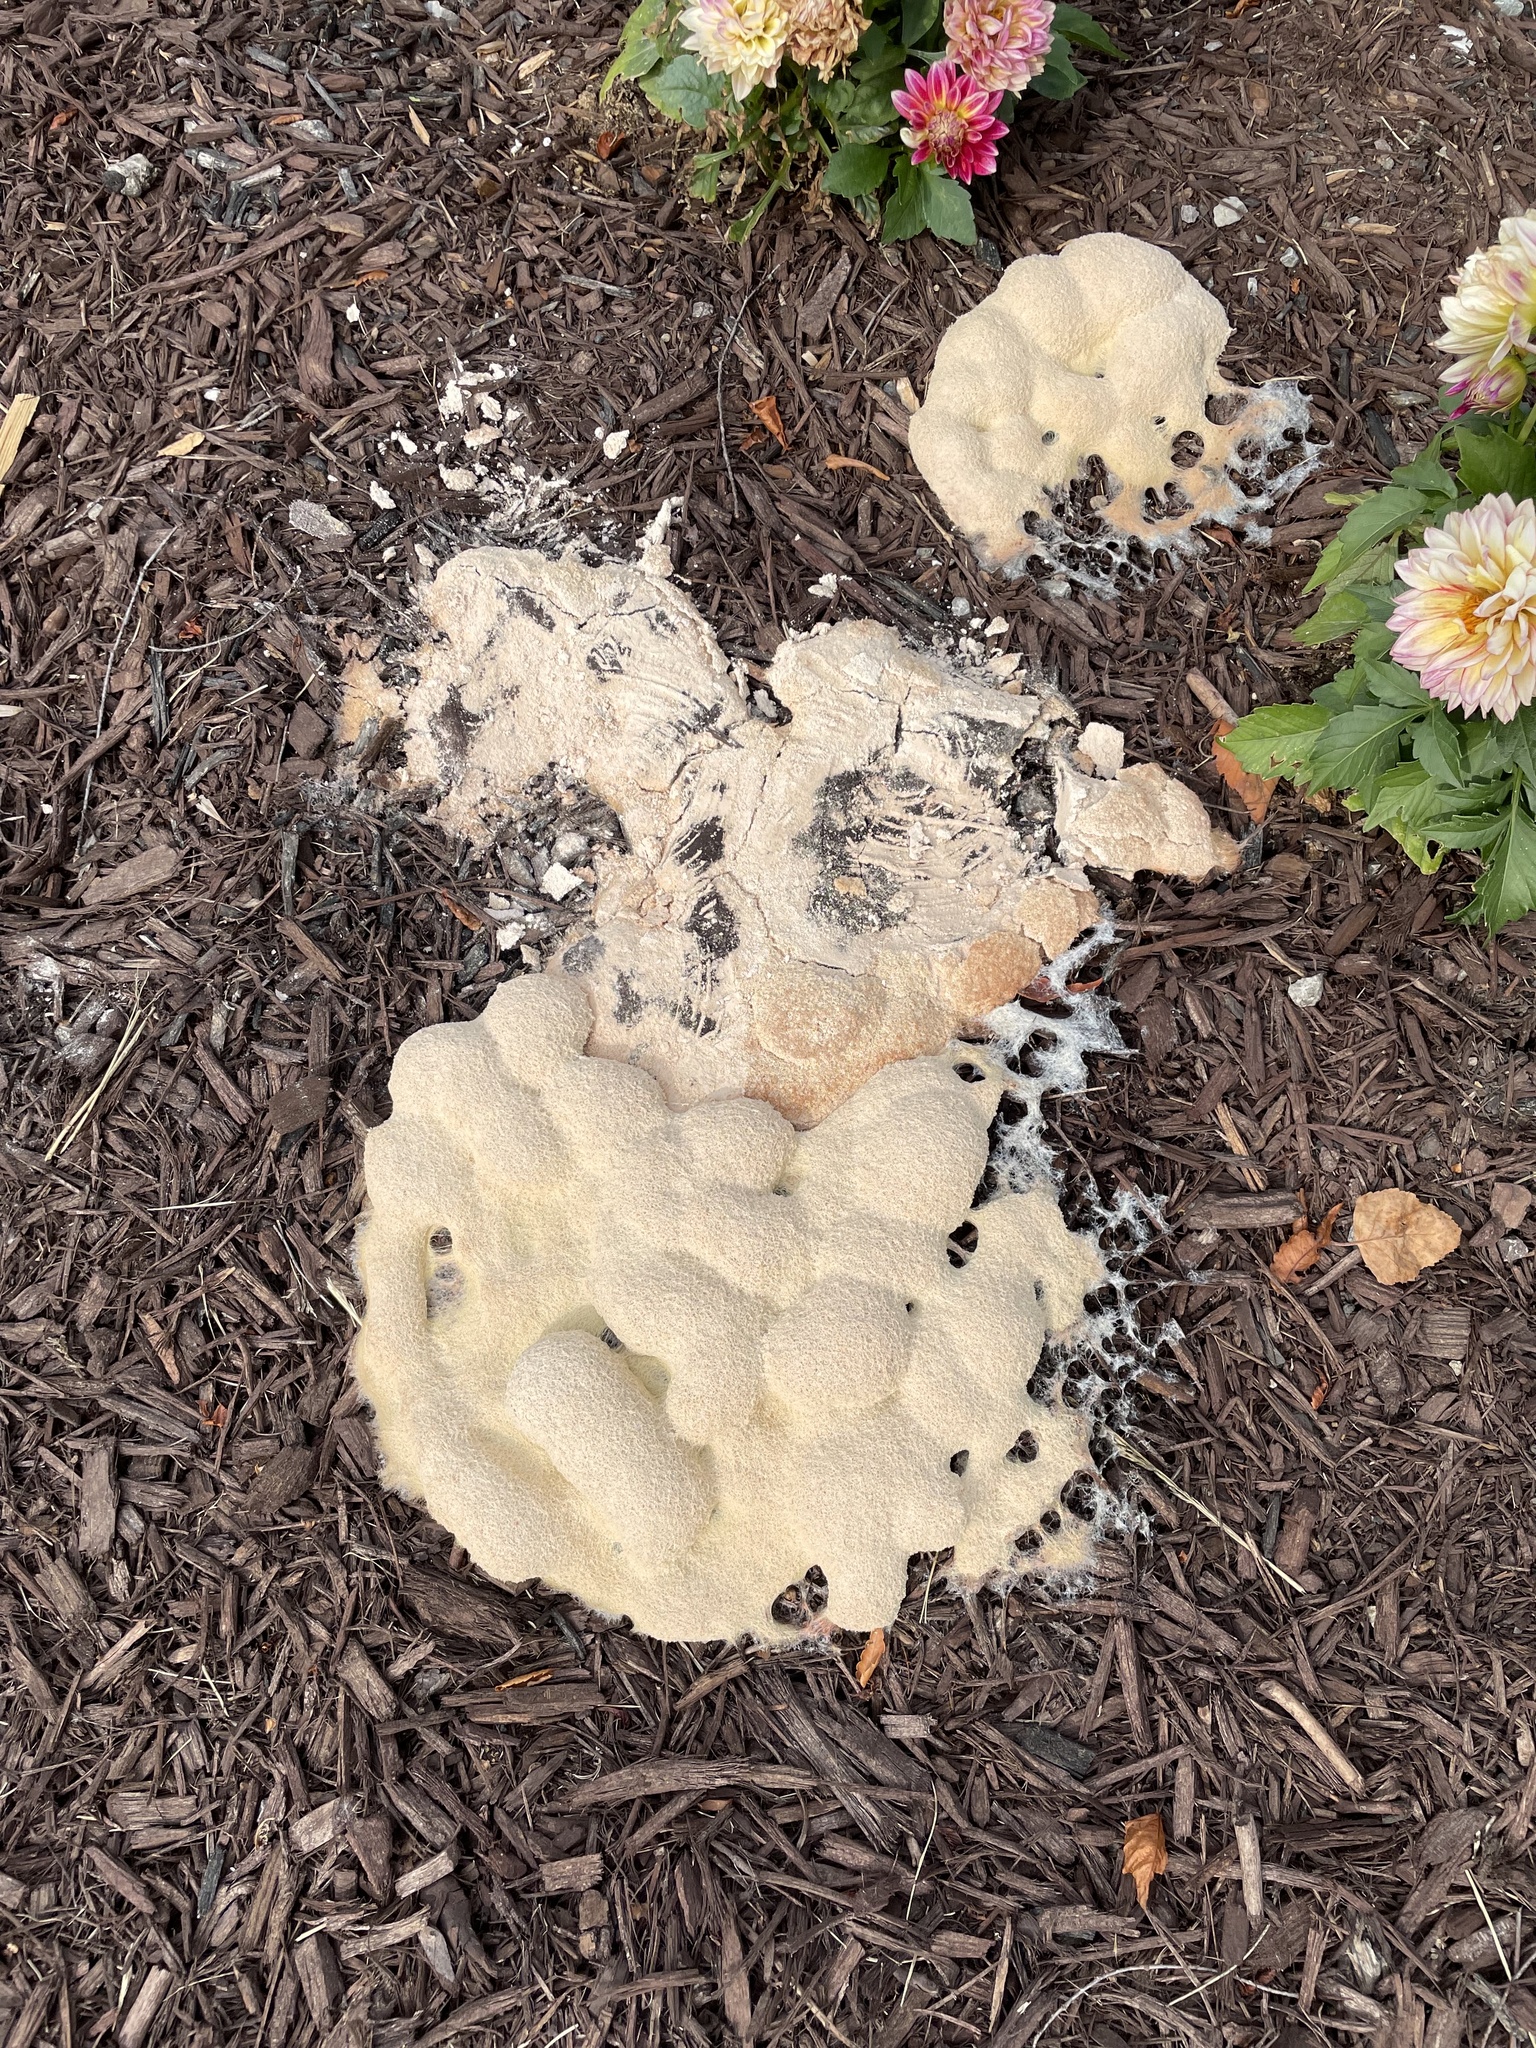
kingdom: Protozoa
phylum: Mycetozoa
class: Myxomycetes
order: Physarales
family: Physaraceae
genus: Fuligo
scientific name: Fuligo septica
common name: Dog vomit slime mold
